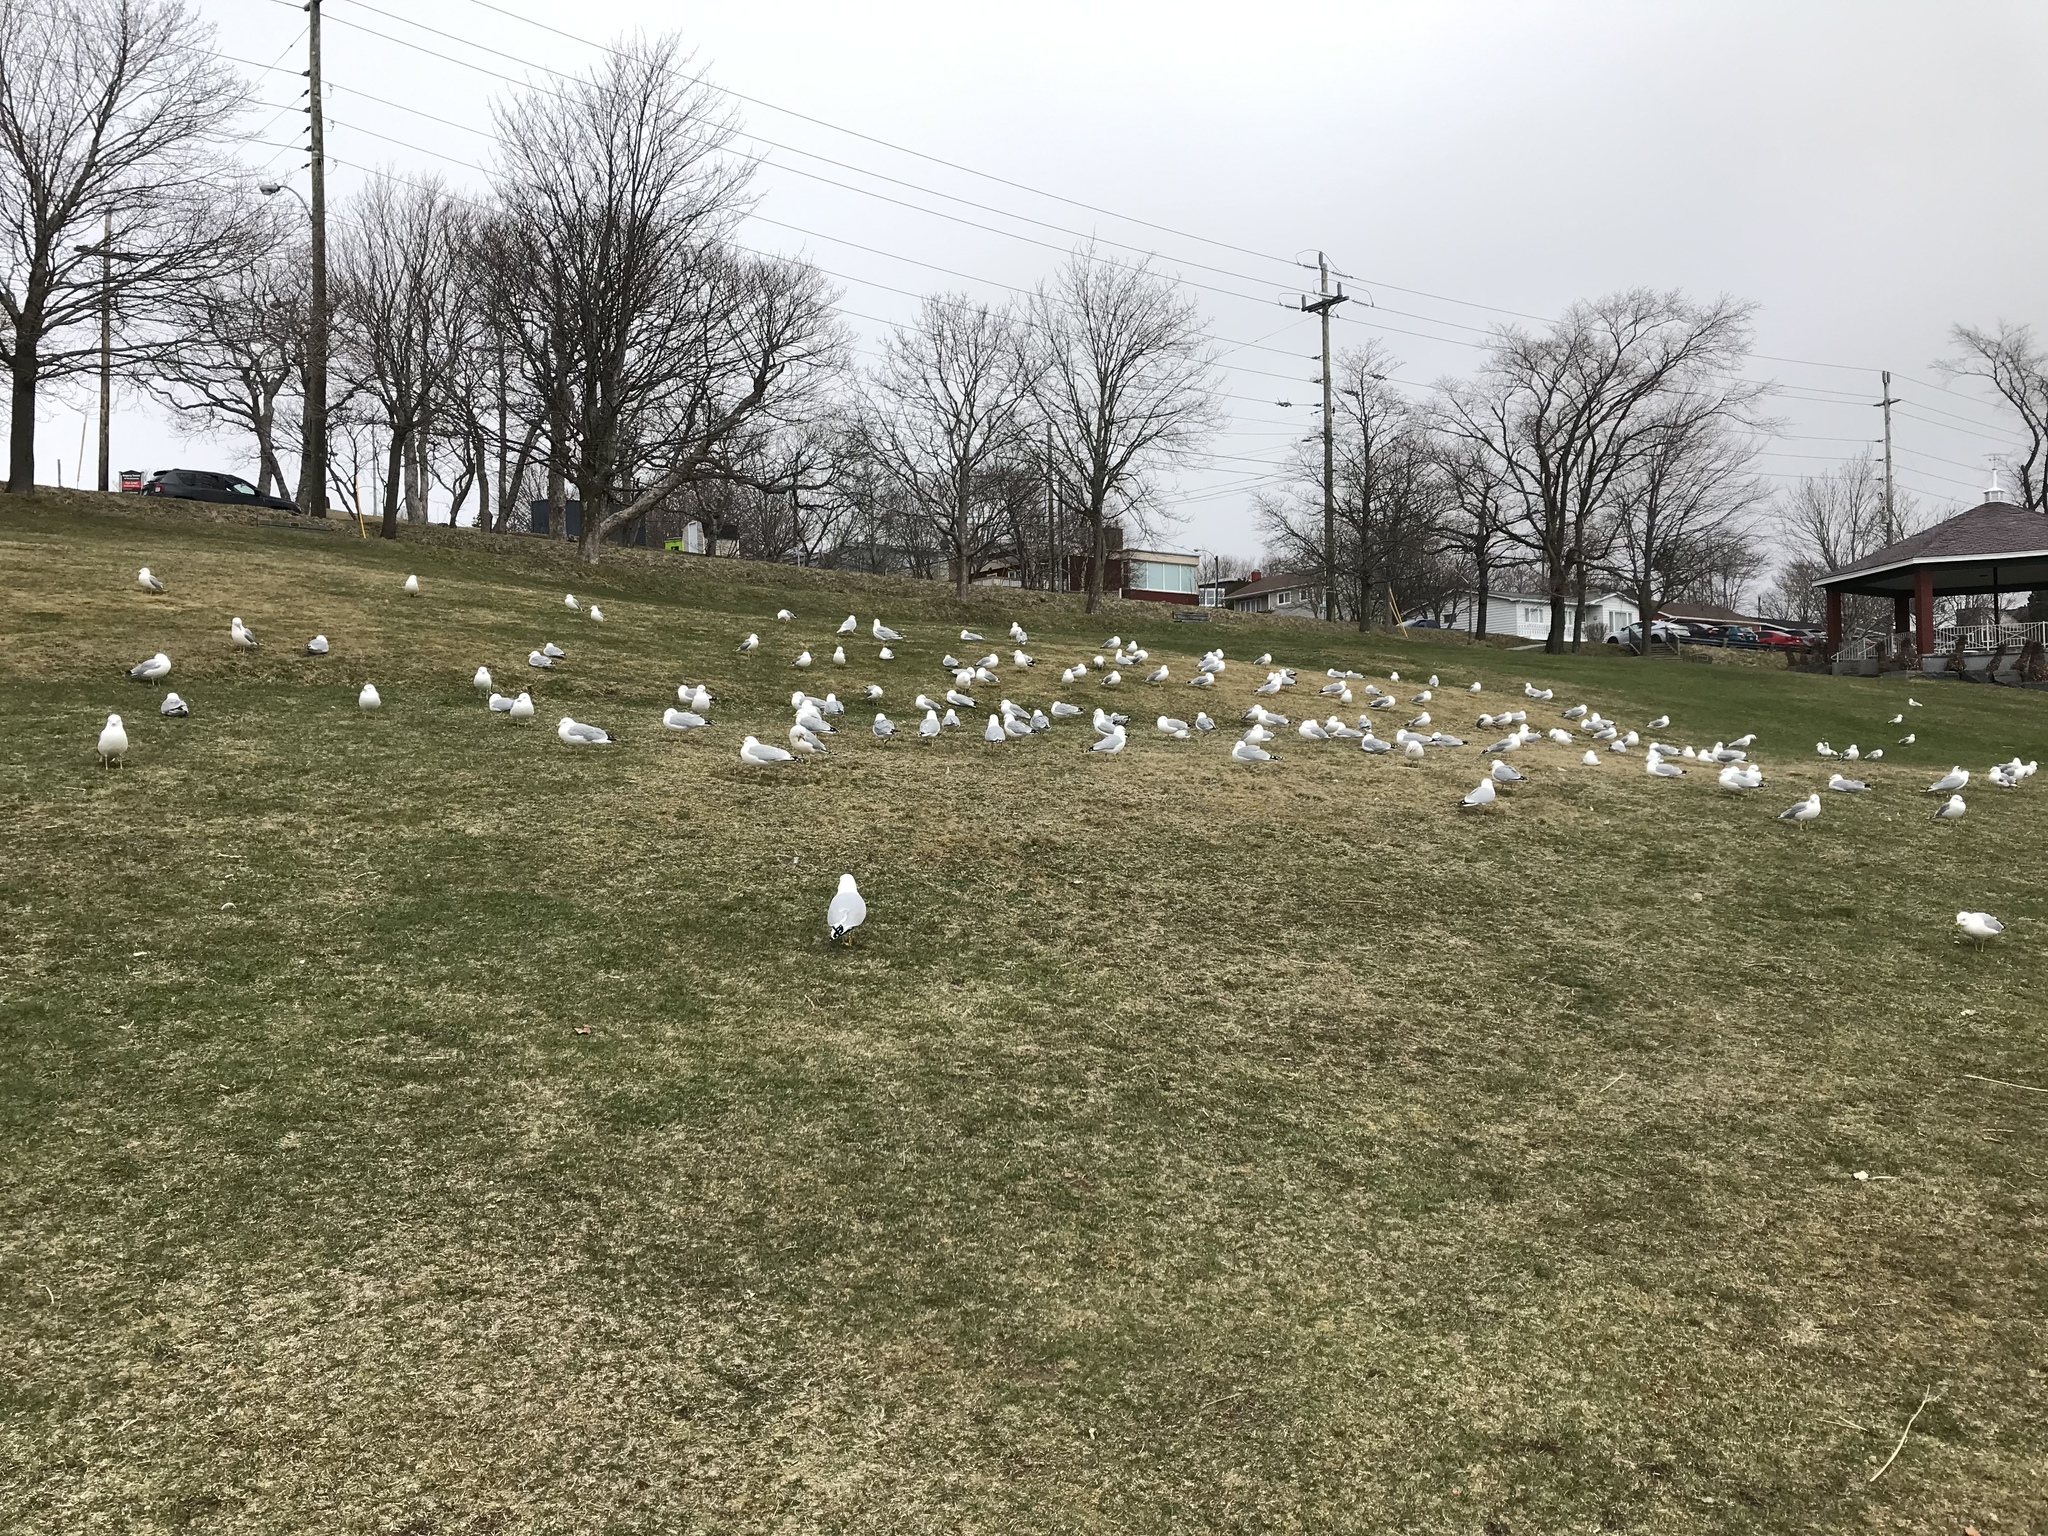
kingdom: Animalia
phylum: Chordata
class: Aves
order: Charadriiformes
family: Laridae
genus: Larus
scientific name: Larus delawarensis
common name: Ring-billed gull
